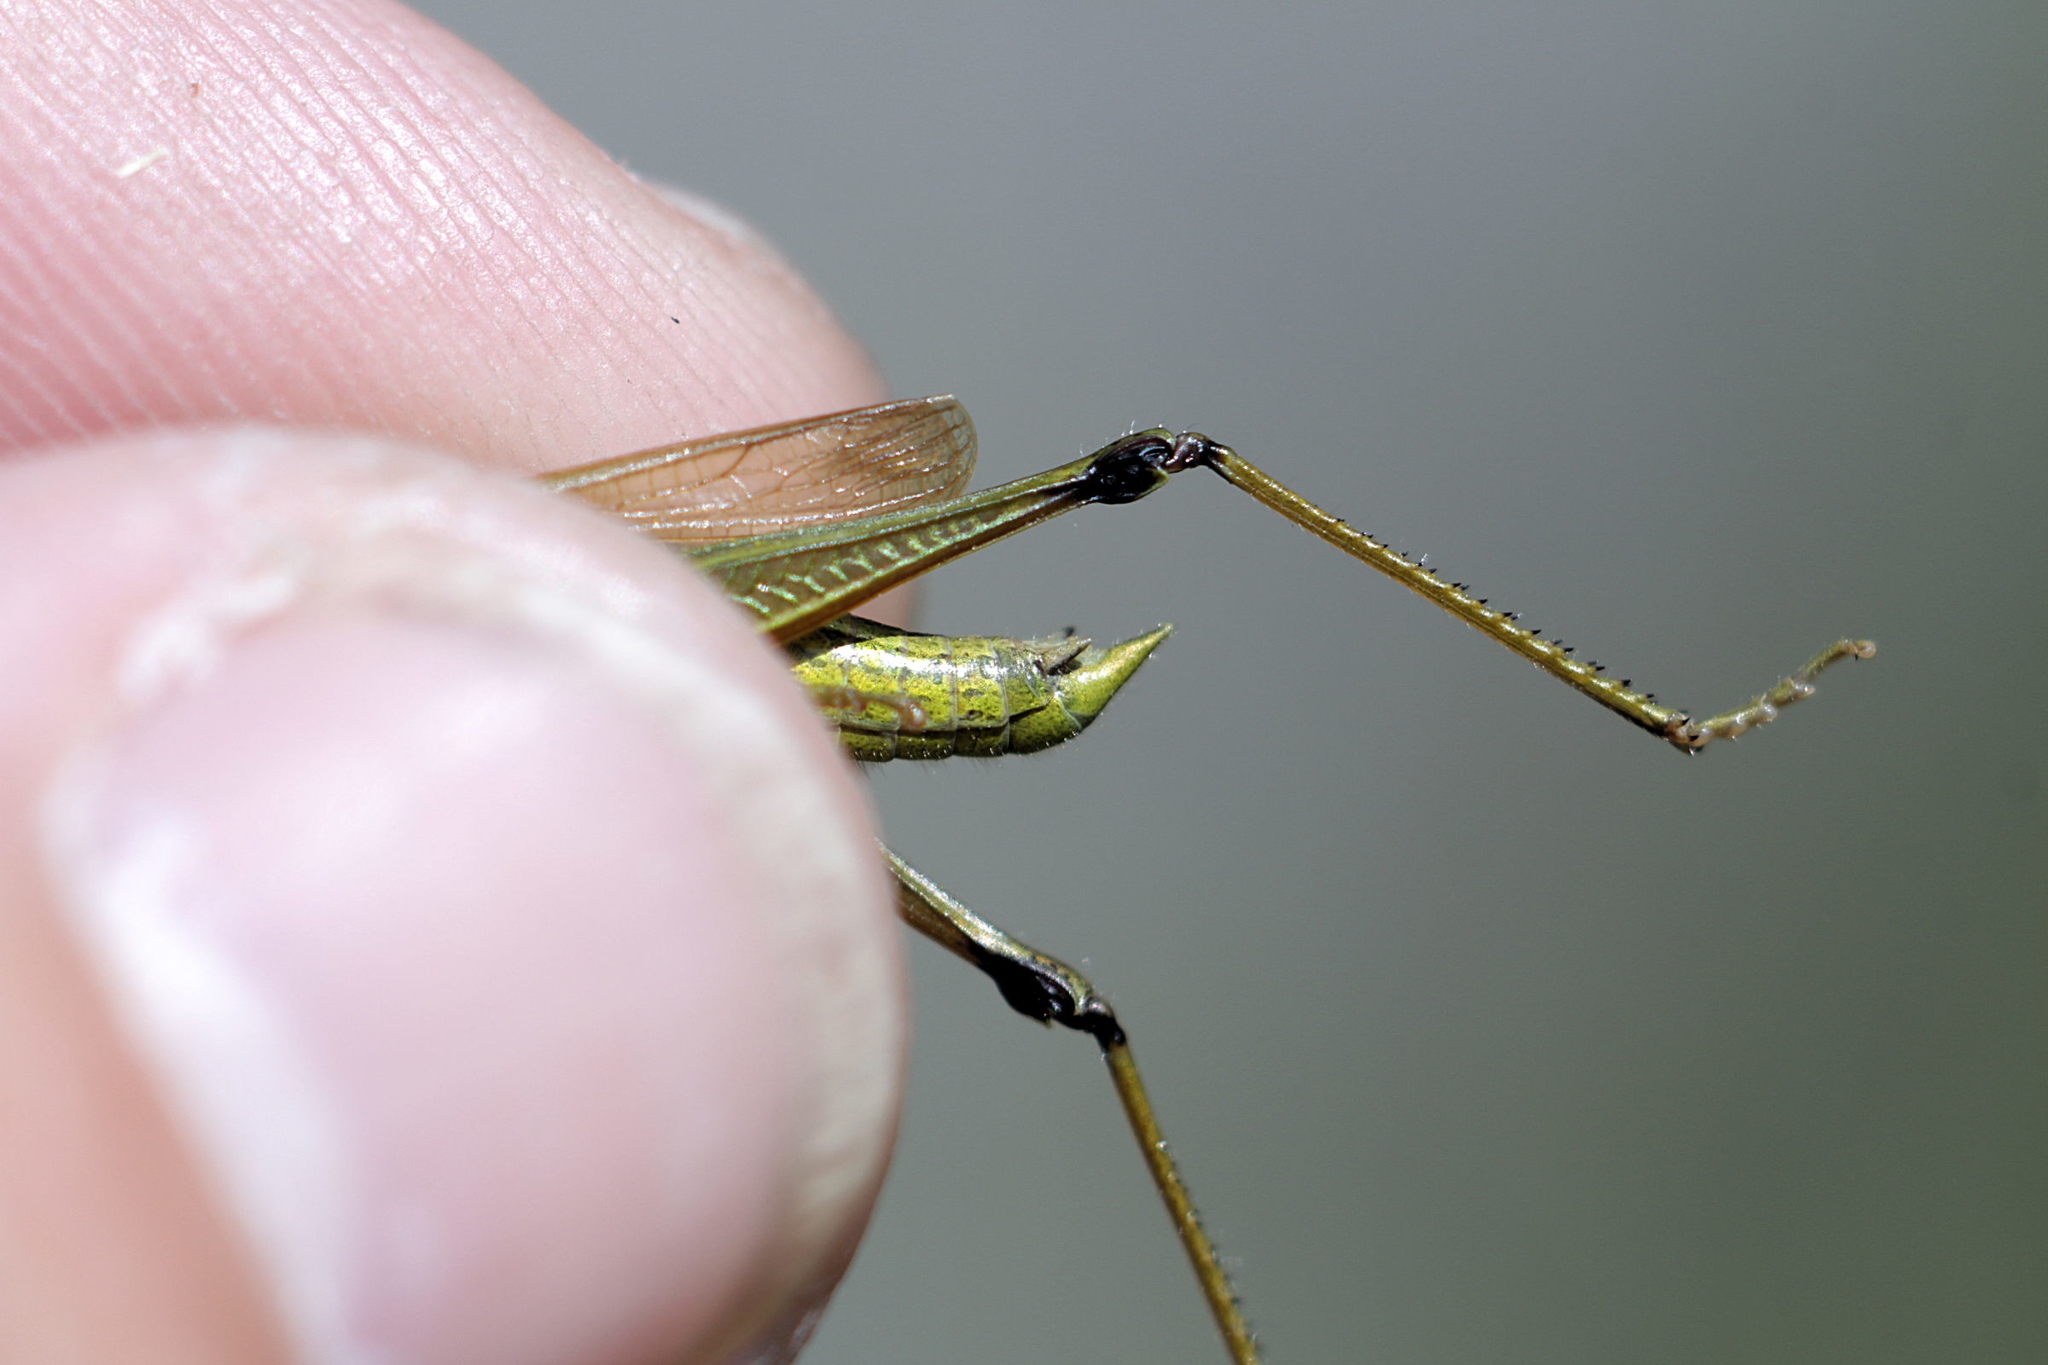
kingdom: Animalia
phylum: Arthropoda
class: Insecta
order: Orthoptera
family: Acrididae
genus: Chrysochraon
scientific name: Chrysochraon dispar
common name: Large gold grasshopper
